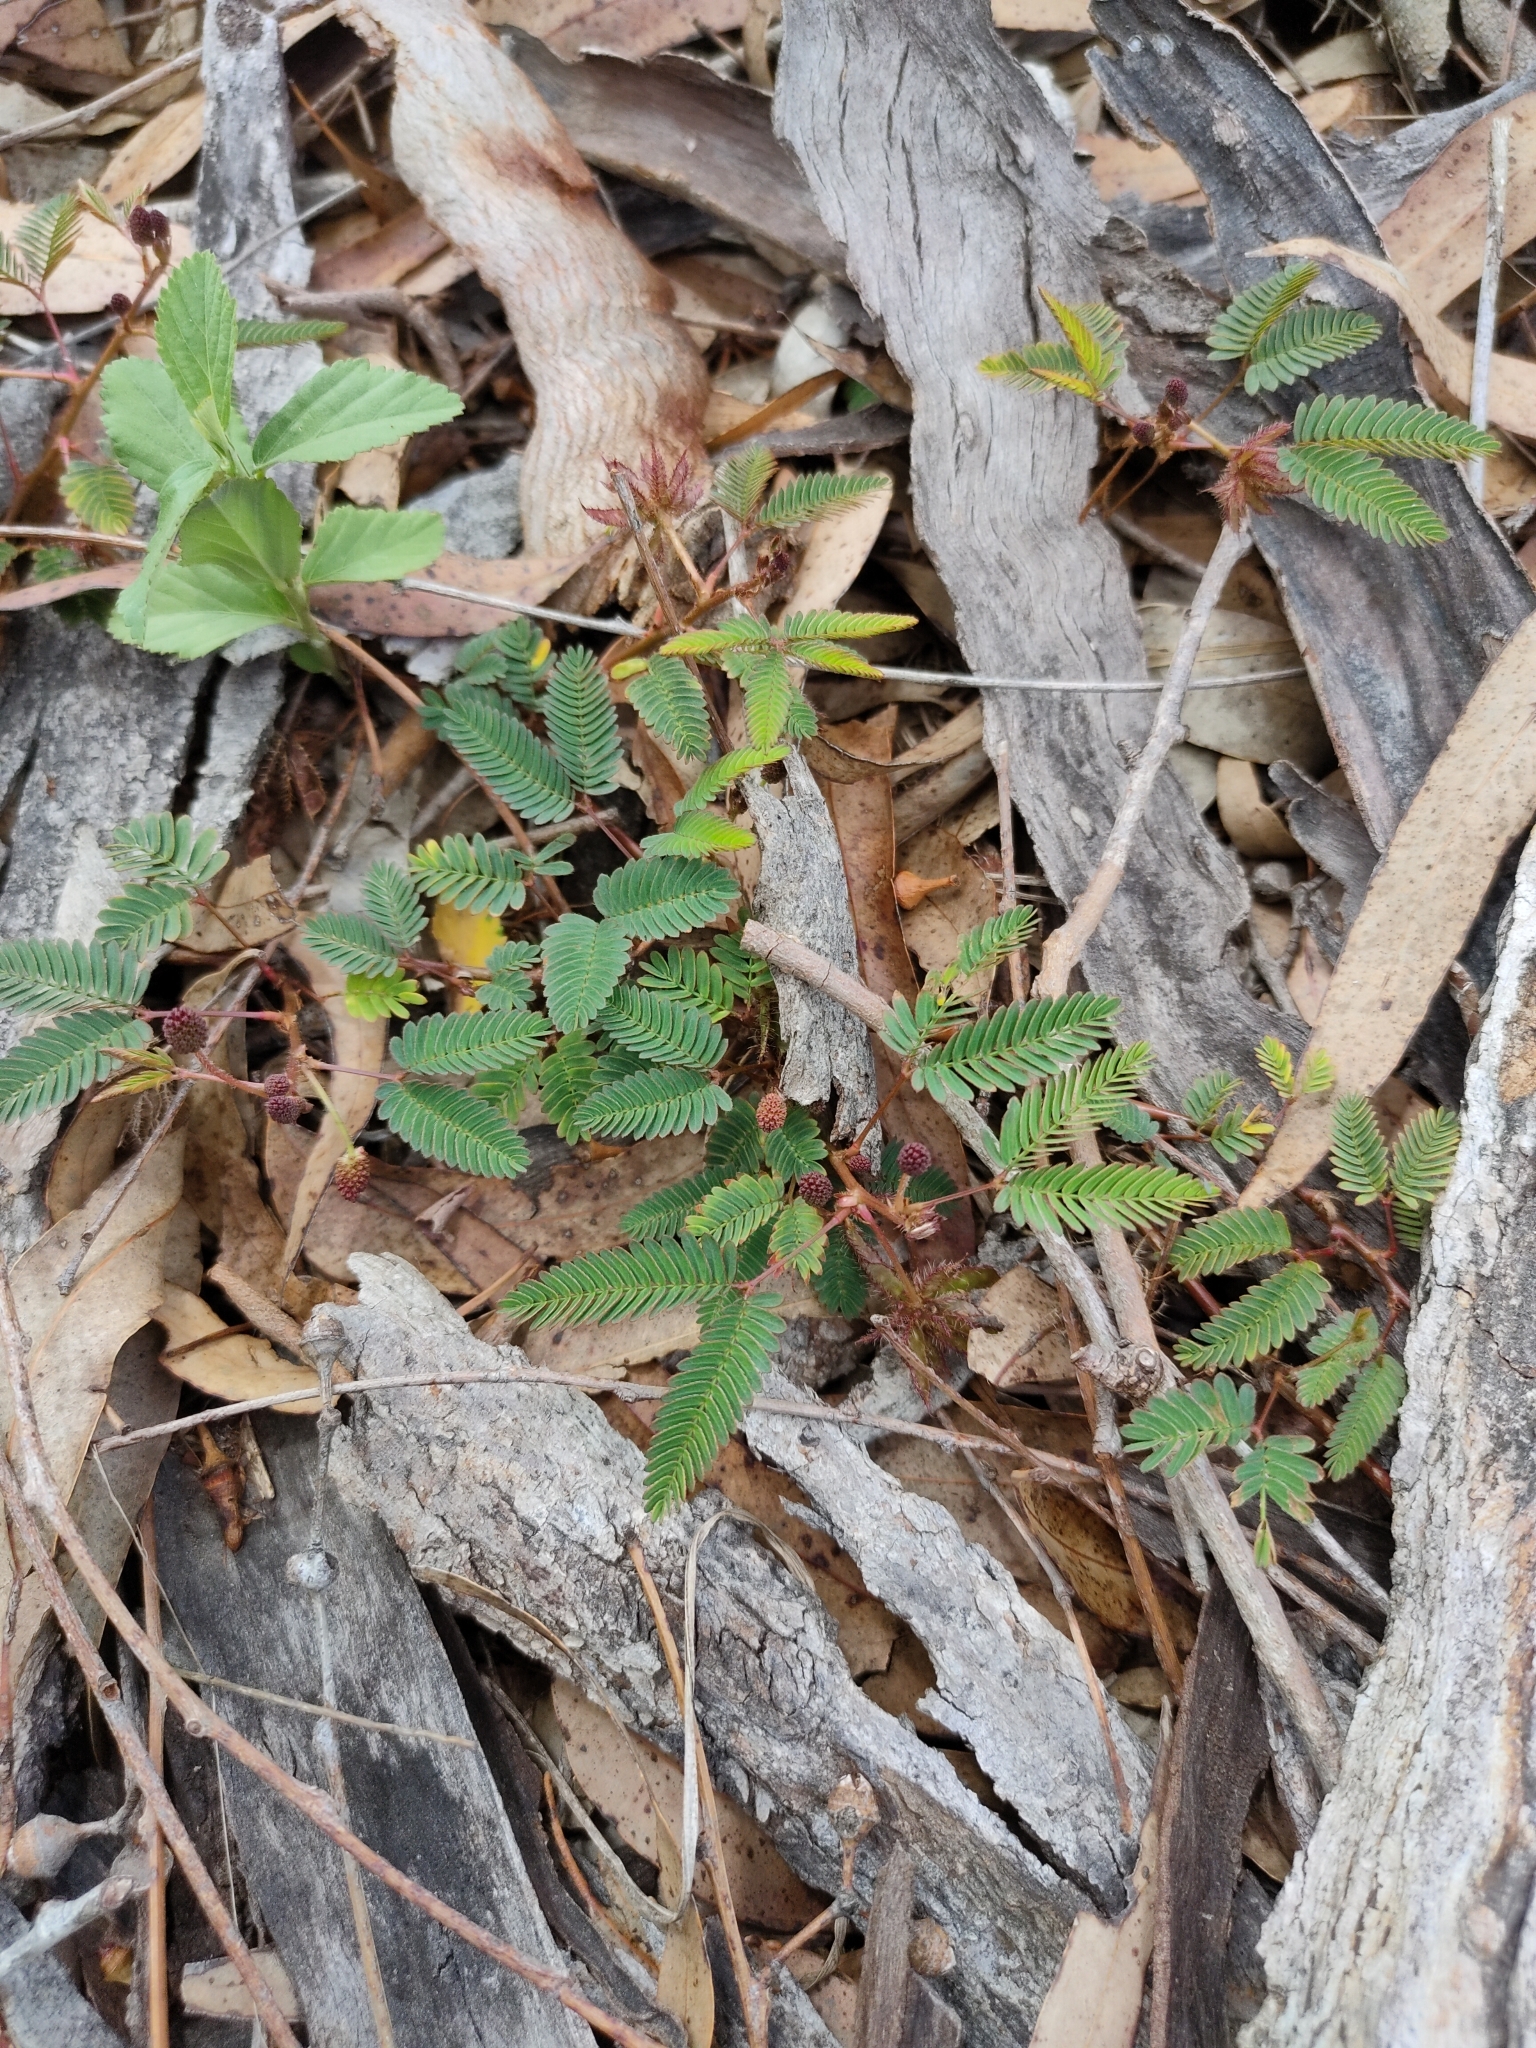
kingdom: Plantae
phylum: Tracheophyta
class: Magnoliopsida
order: Fabales
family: Fabaceae
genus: Mimosa
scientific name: Mimosa pudica
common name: Sensitive plant
